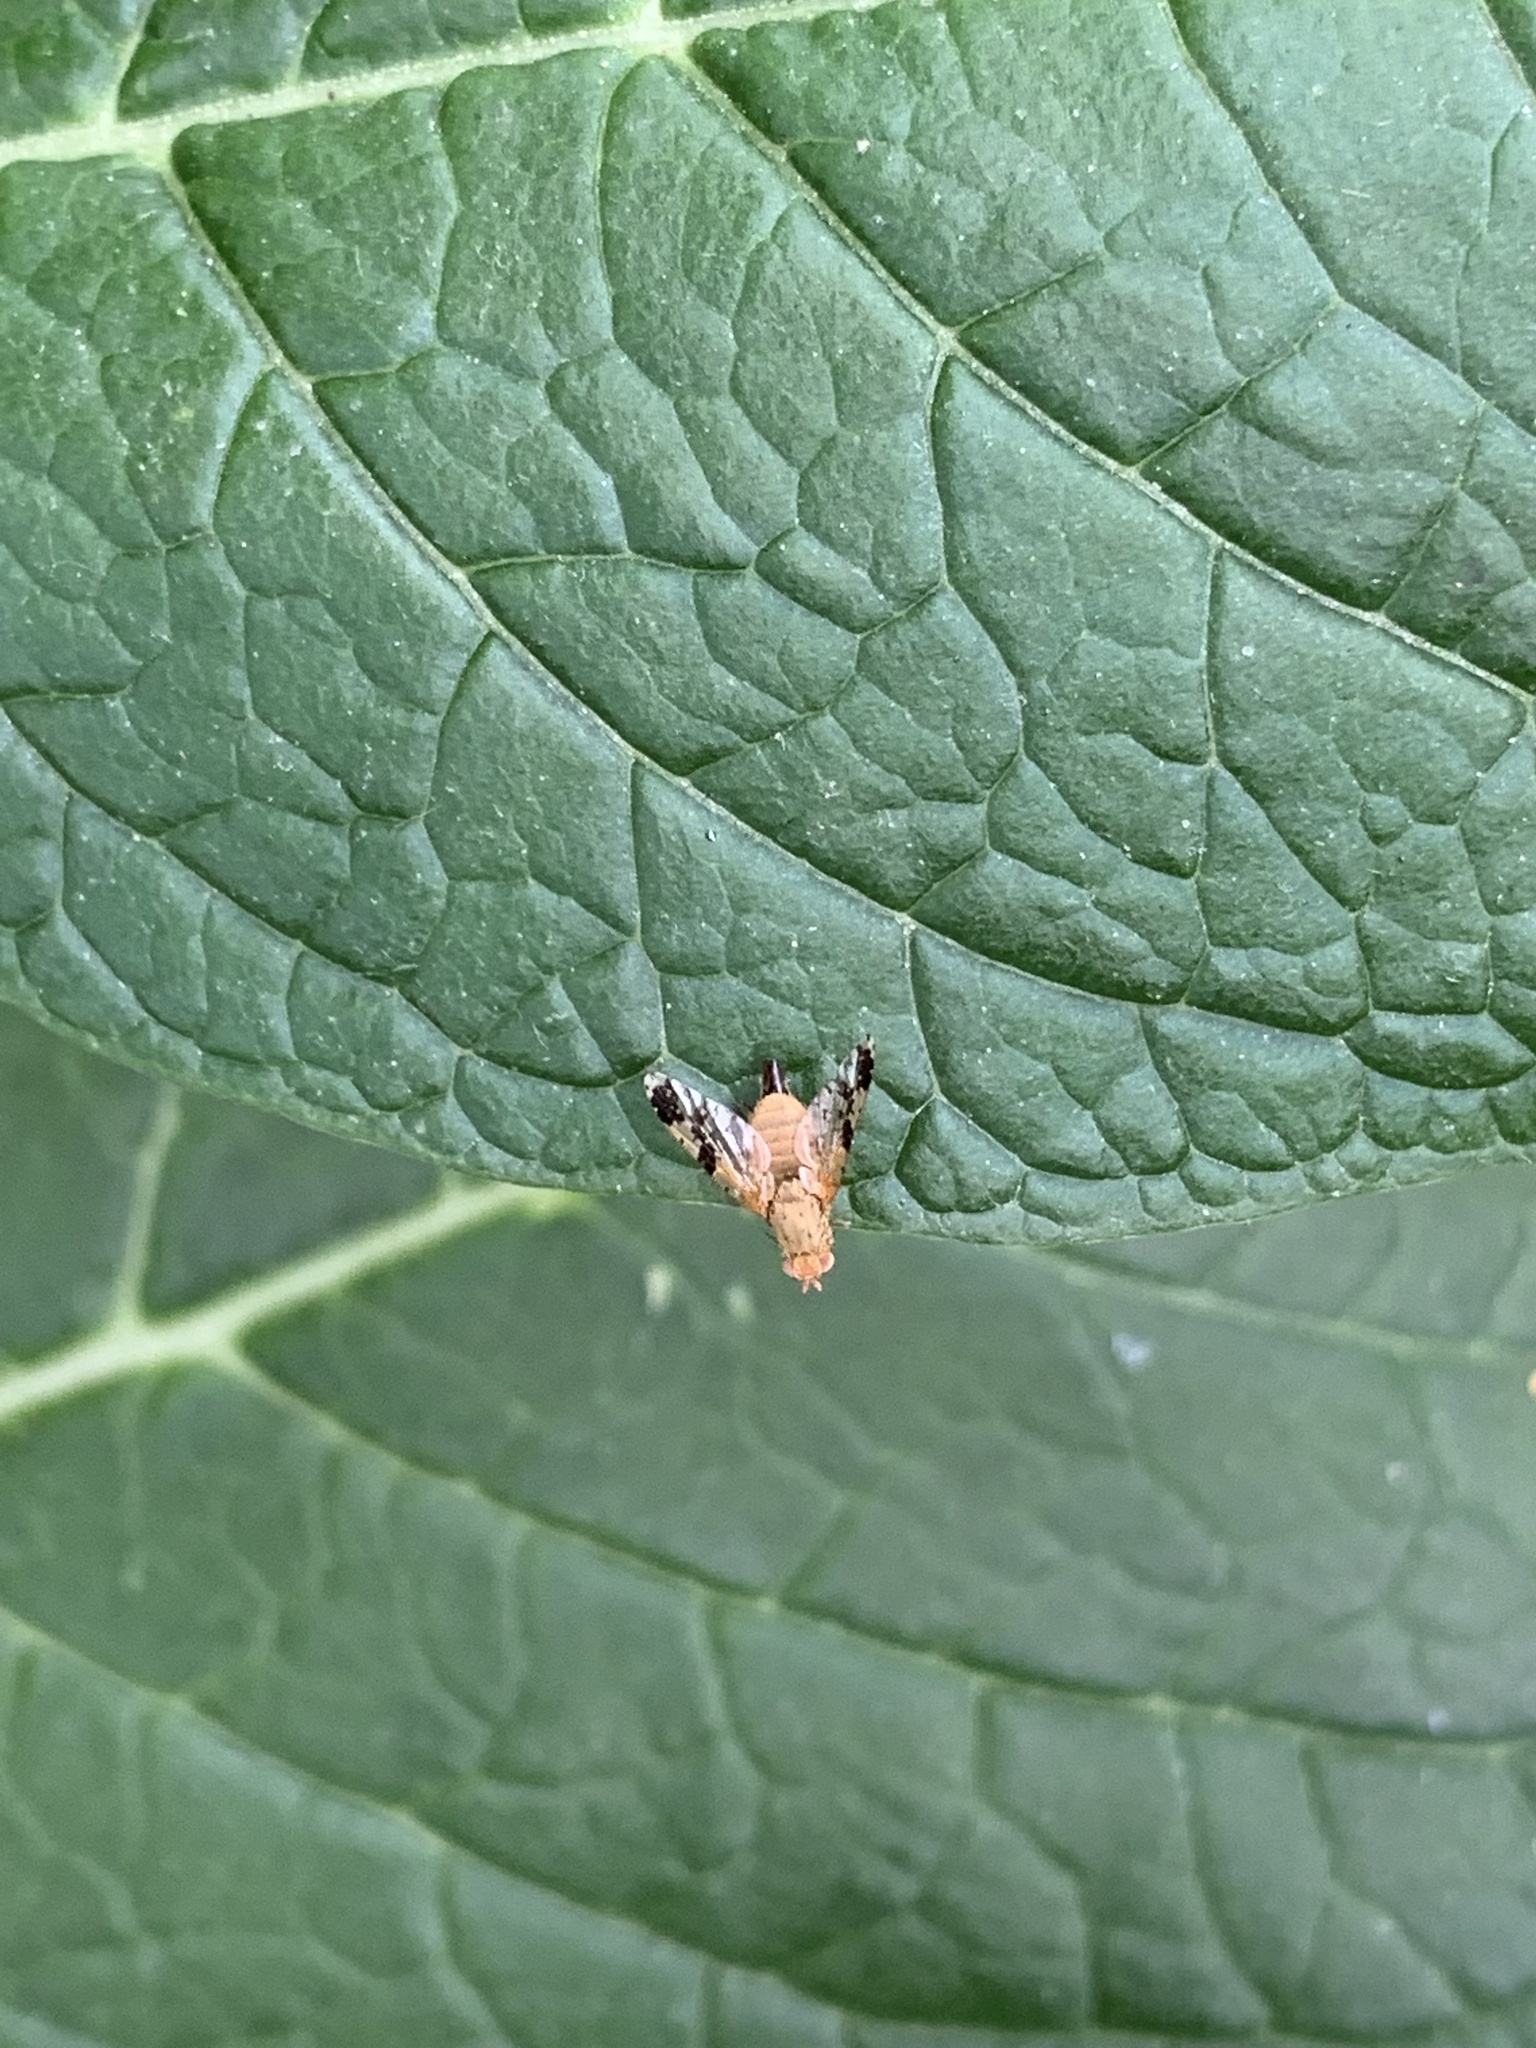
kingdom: Animalia
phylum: Arthropoda
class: Insecta
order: Diptera
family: Tephritidae
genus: Tephritis
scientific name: Tephritis bardanae
